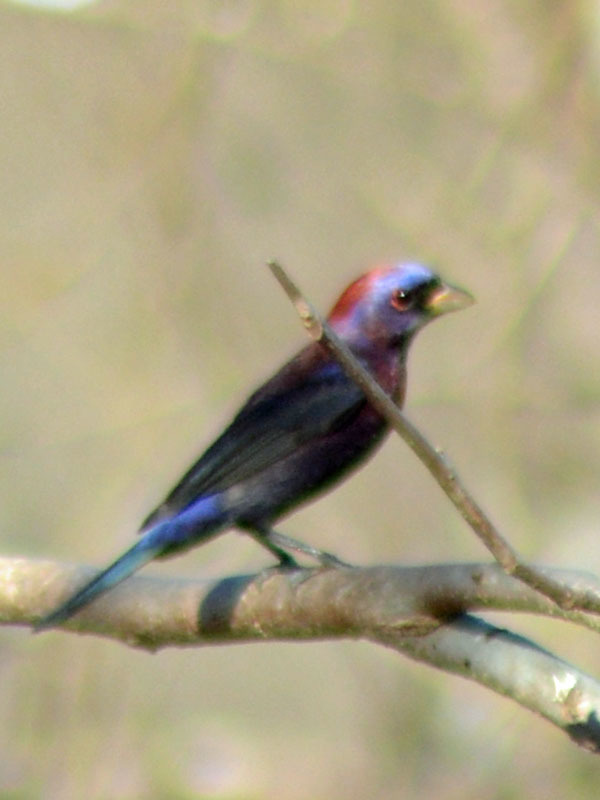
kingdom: Animalia
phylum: Chordata
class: Aves
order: Passeriformes
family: Cardinalidae
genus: Passerina
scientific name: Passerina versicolor
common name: Varied bunting
